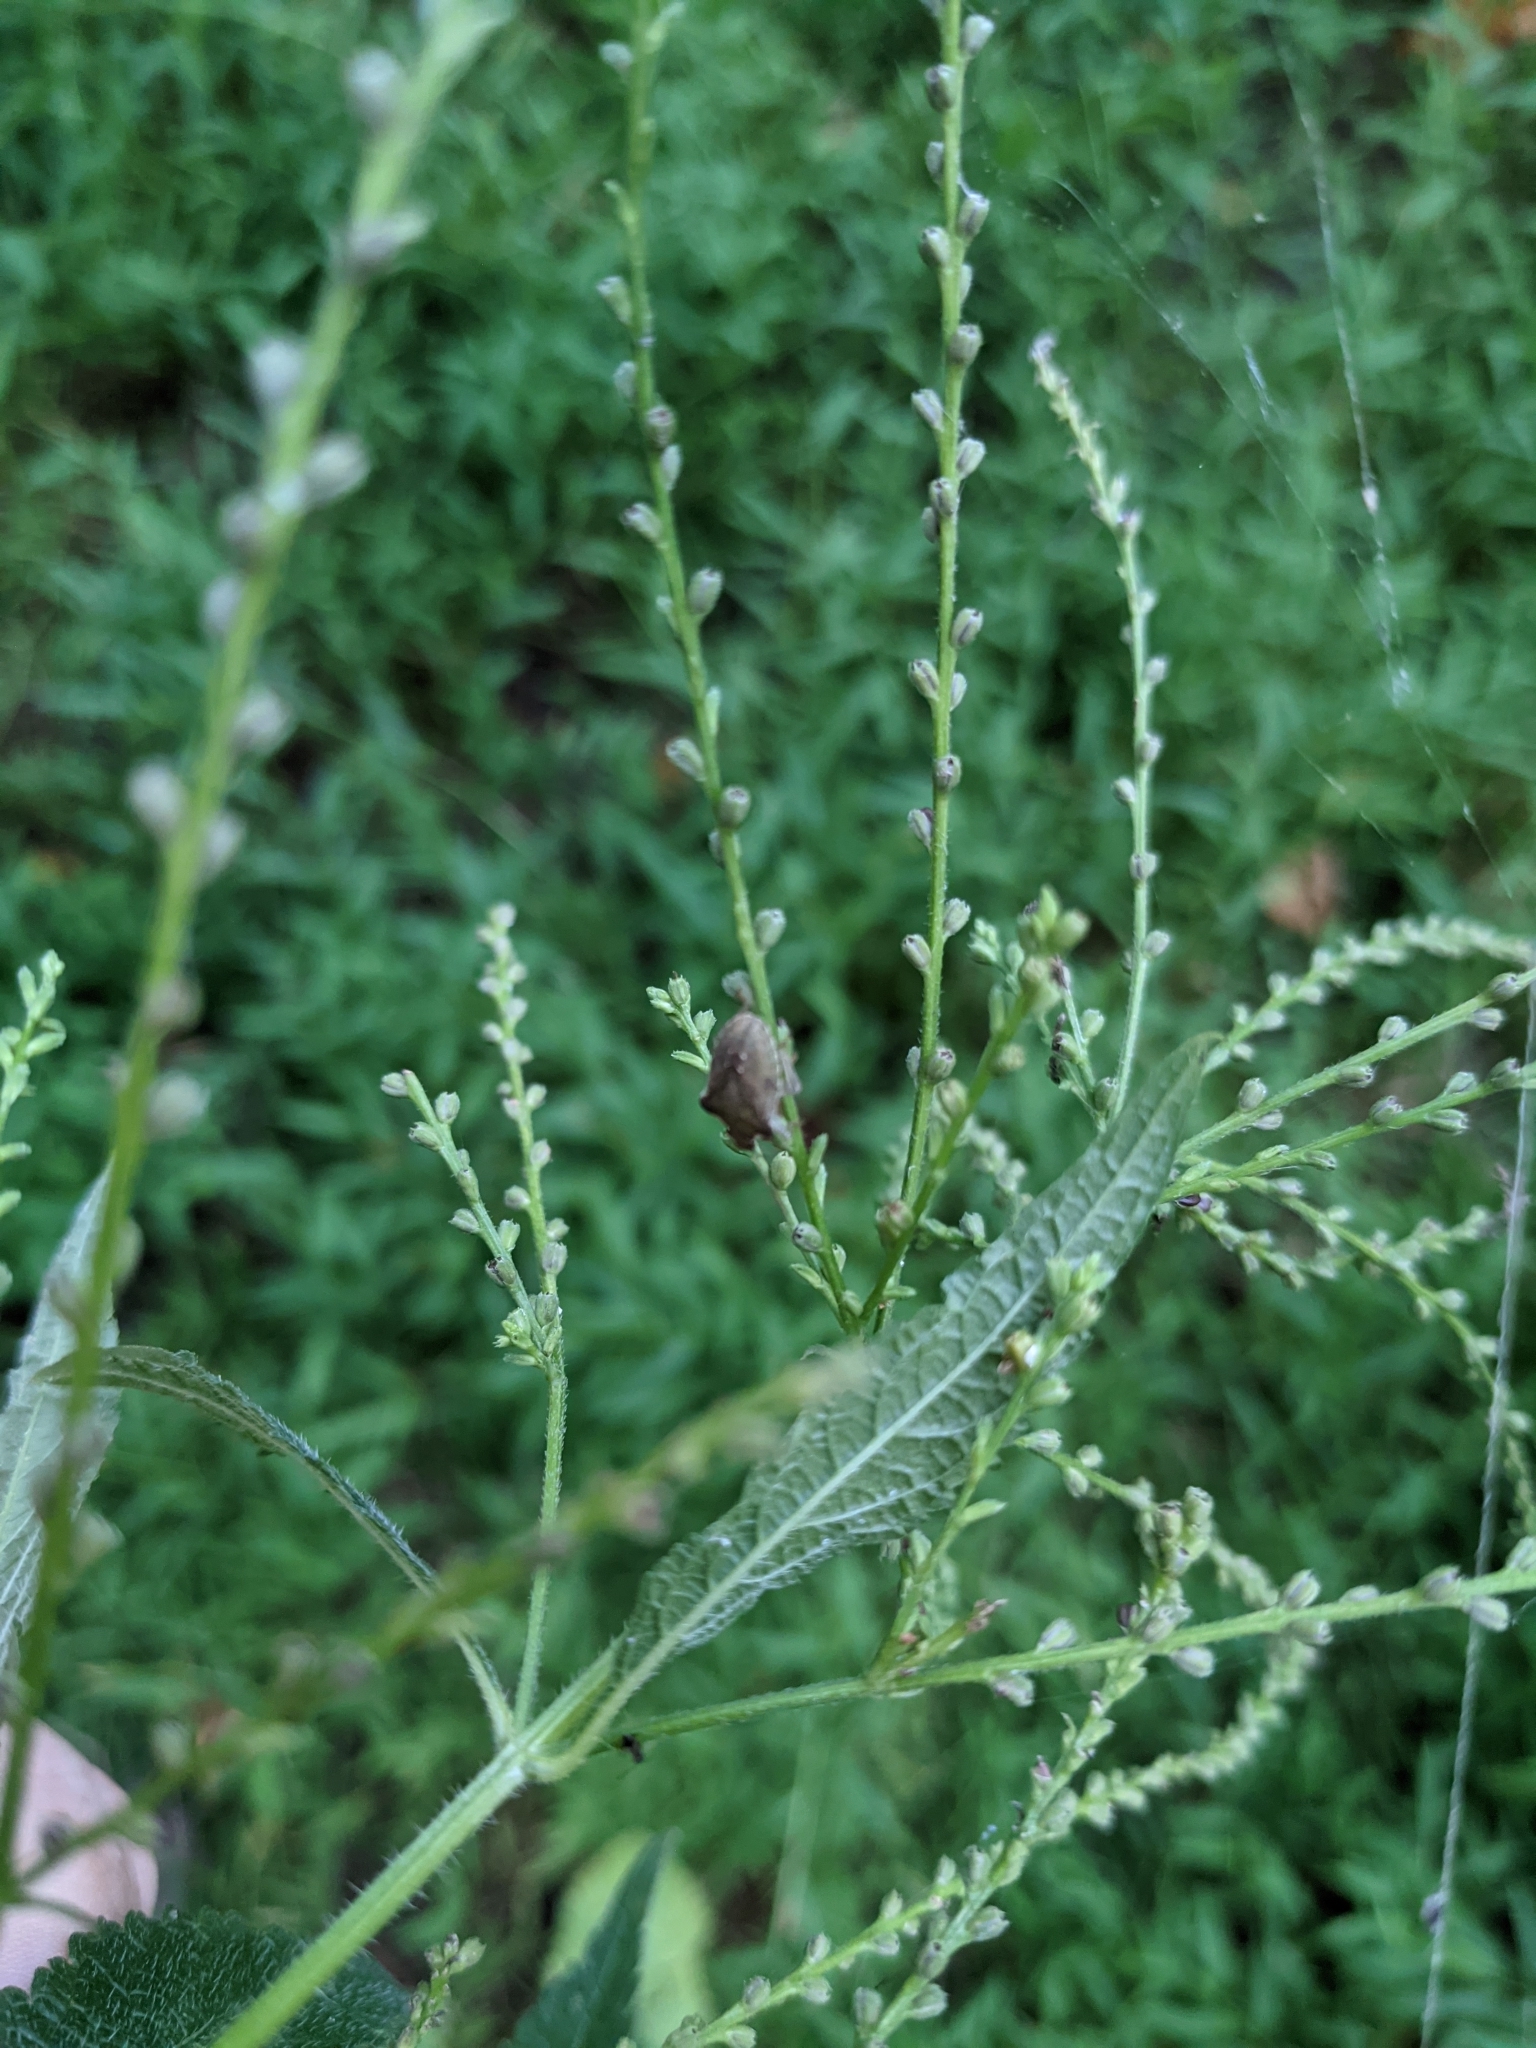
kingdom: Plantae
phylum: Tracheophyta
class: Magnoliopsida
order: Lamiales
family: Verbenaceae
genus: Verbena
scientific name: Verbena urticifolia
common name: Nettle-leaved vervain
